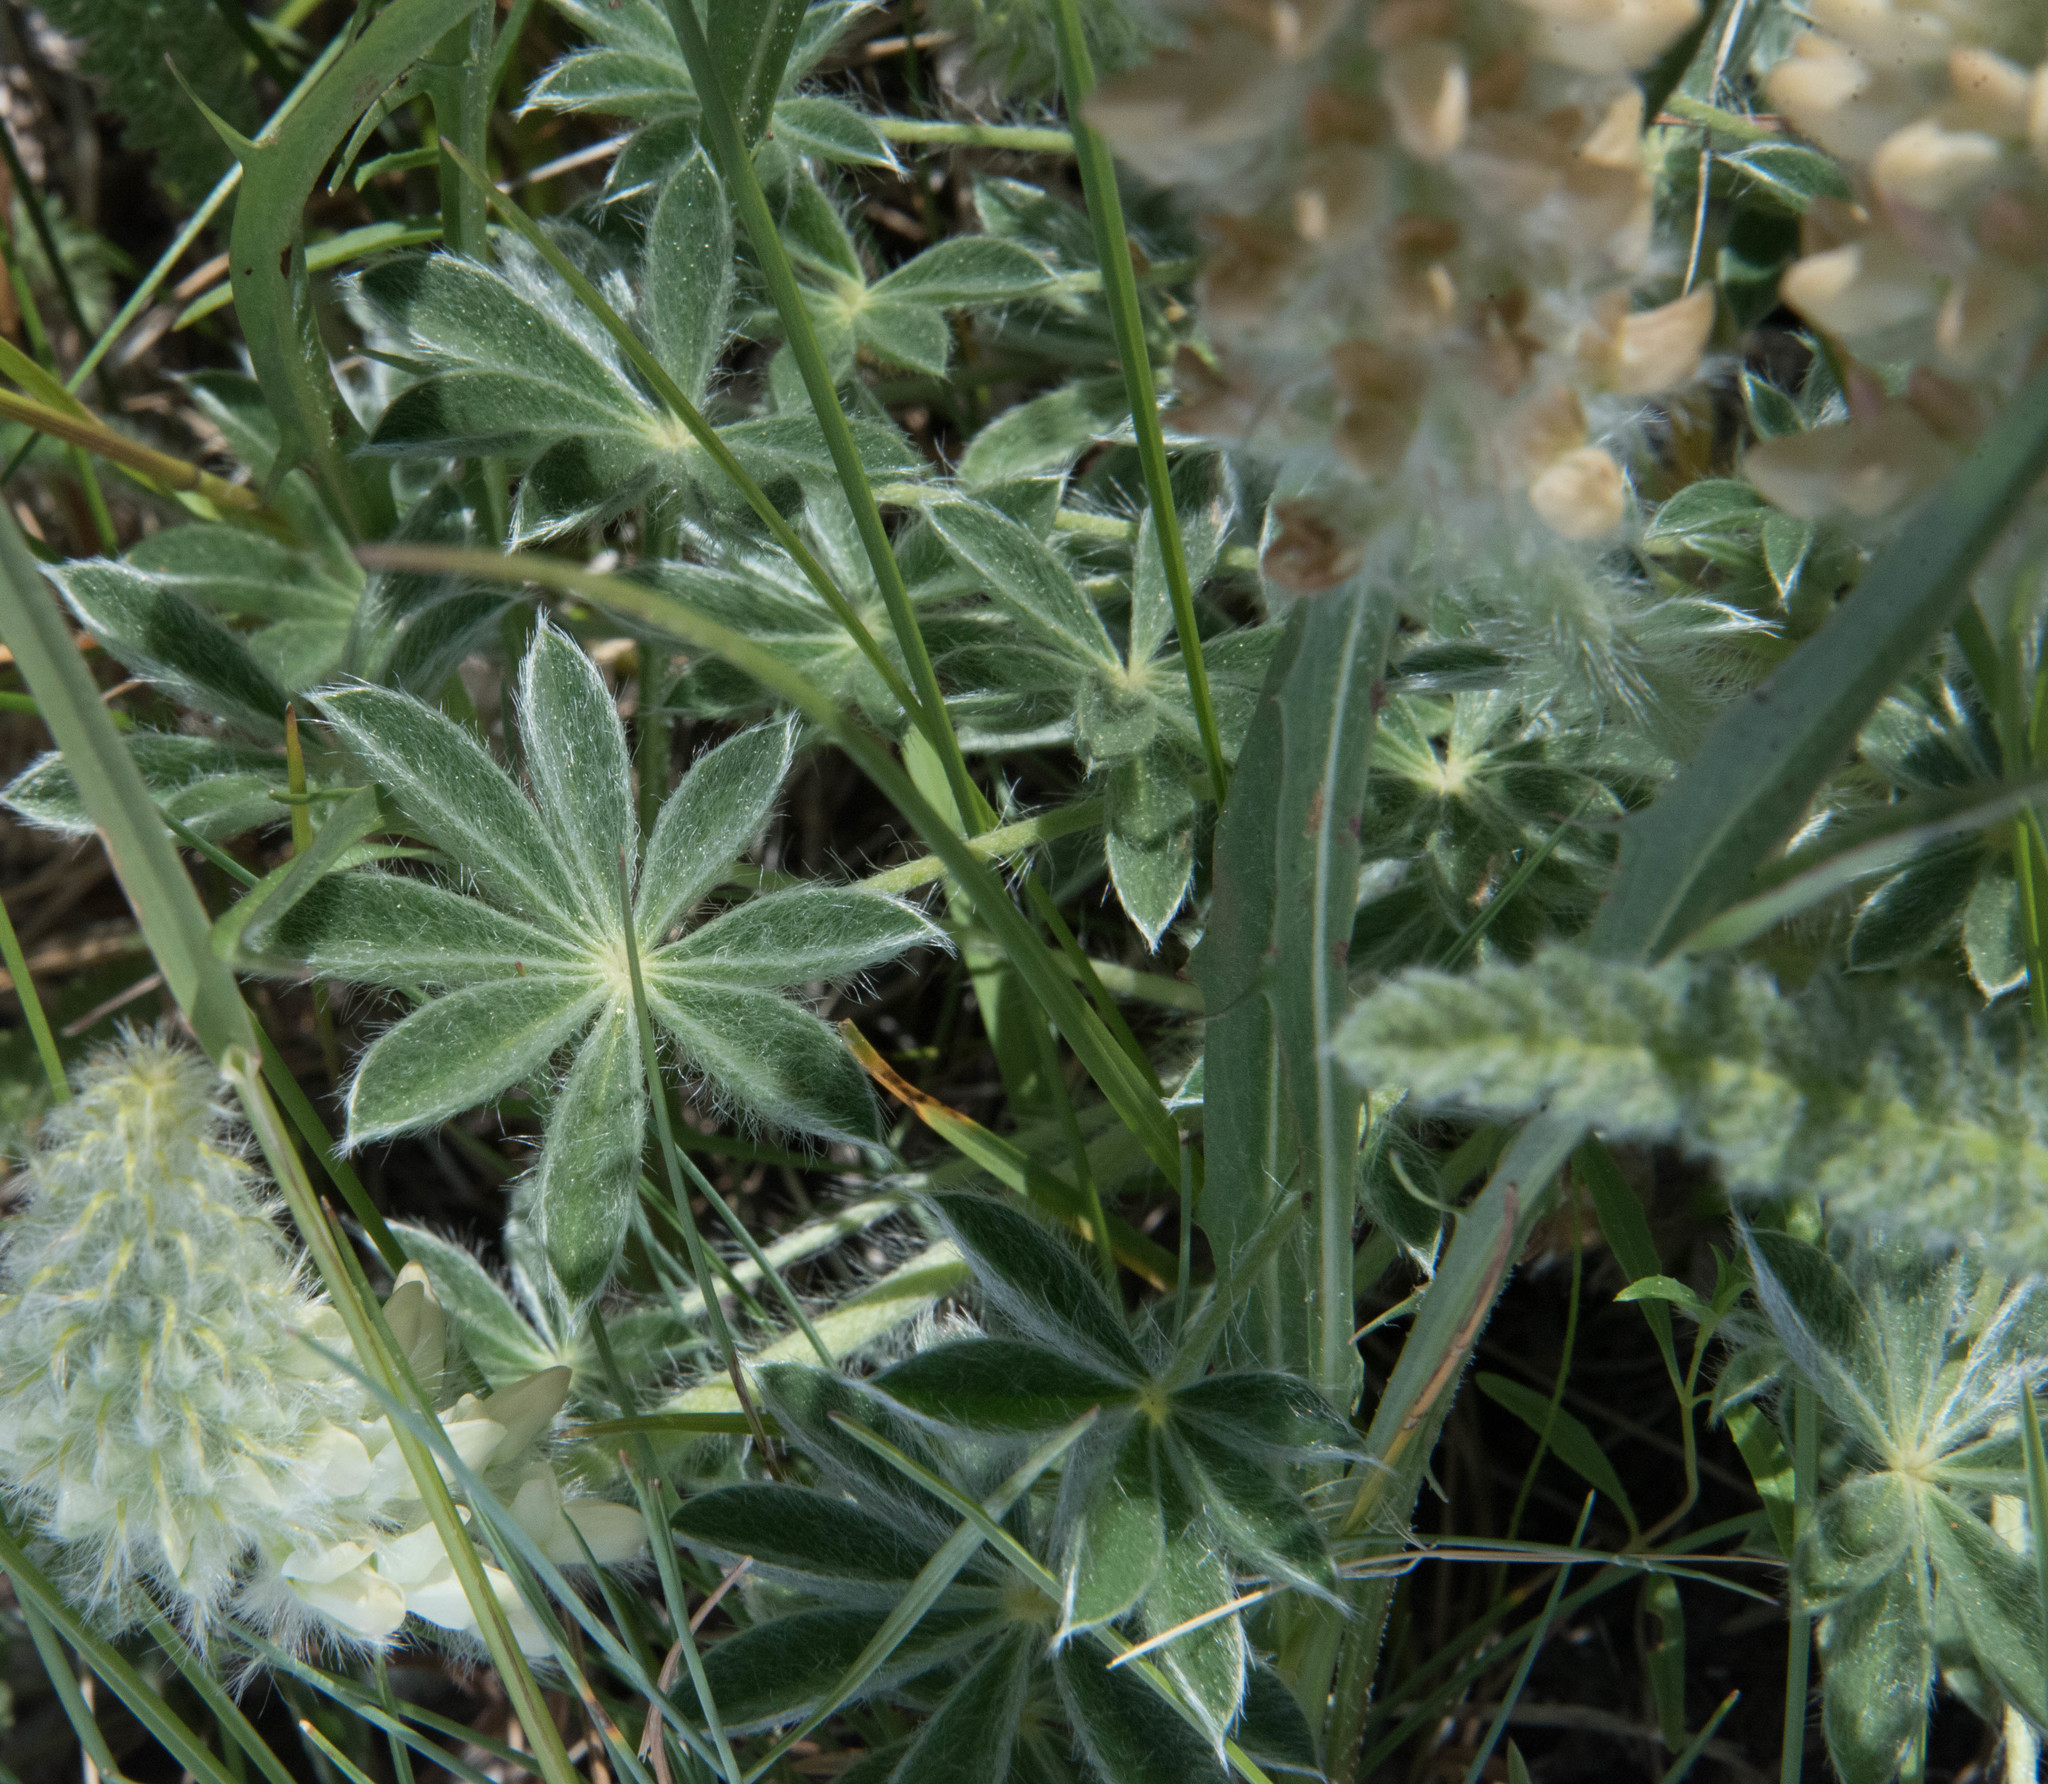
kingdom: Plantae
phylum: Tracheophyta
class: Magnoliopsida
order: Fabales
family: Fabaceae
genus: Lupinus
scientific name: Lupinus antoninus
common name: Anthony peak lupine
